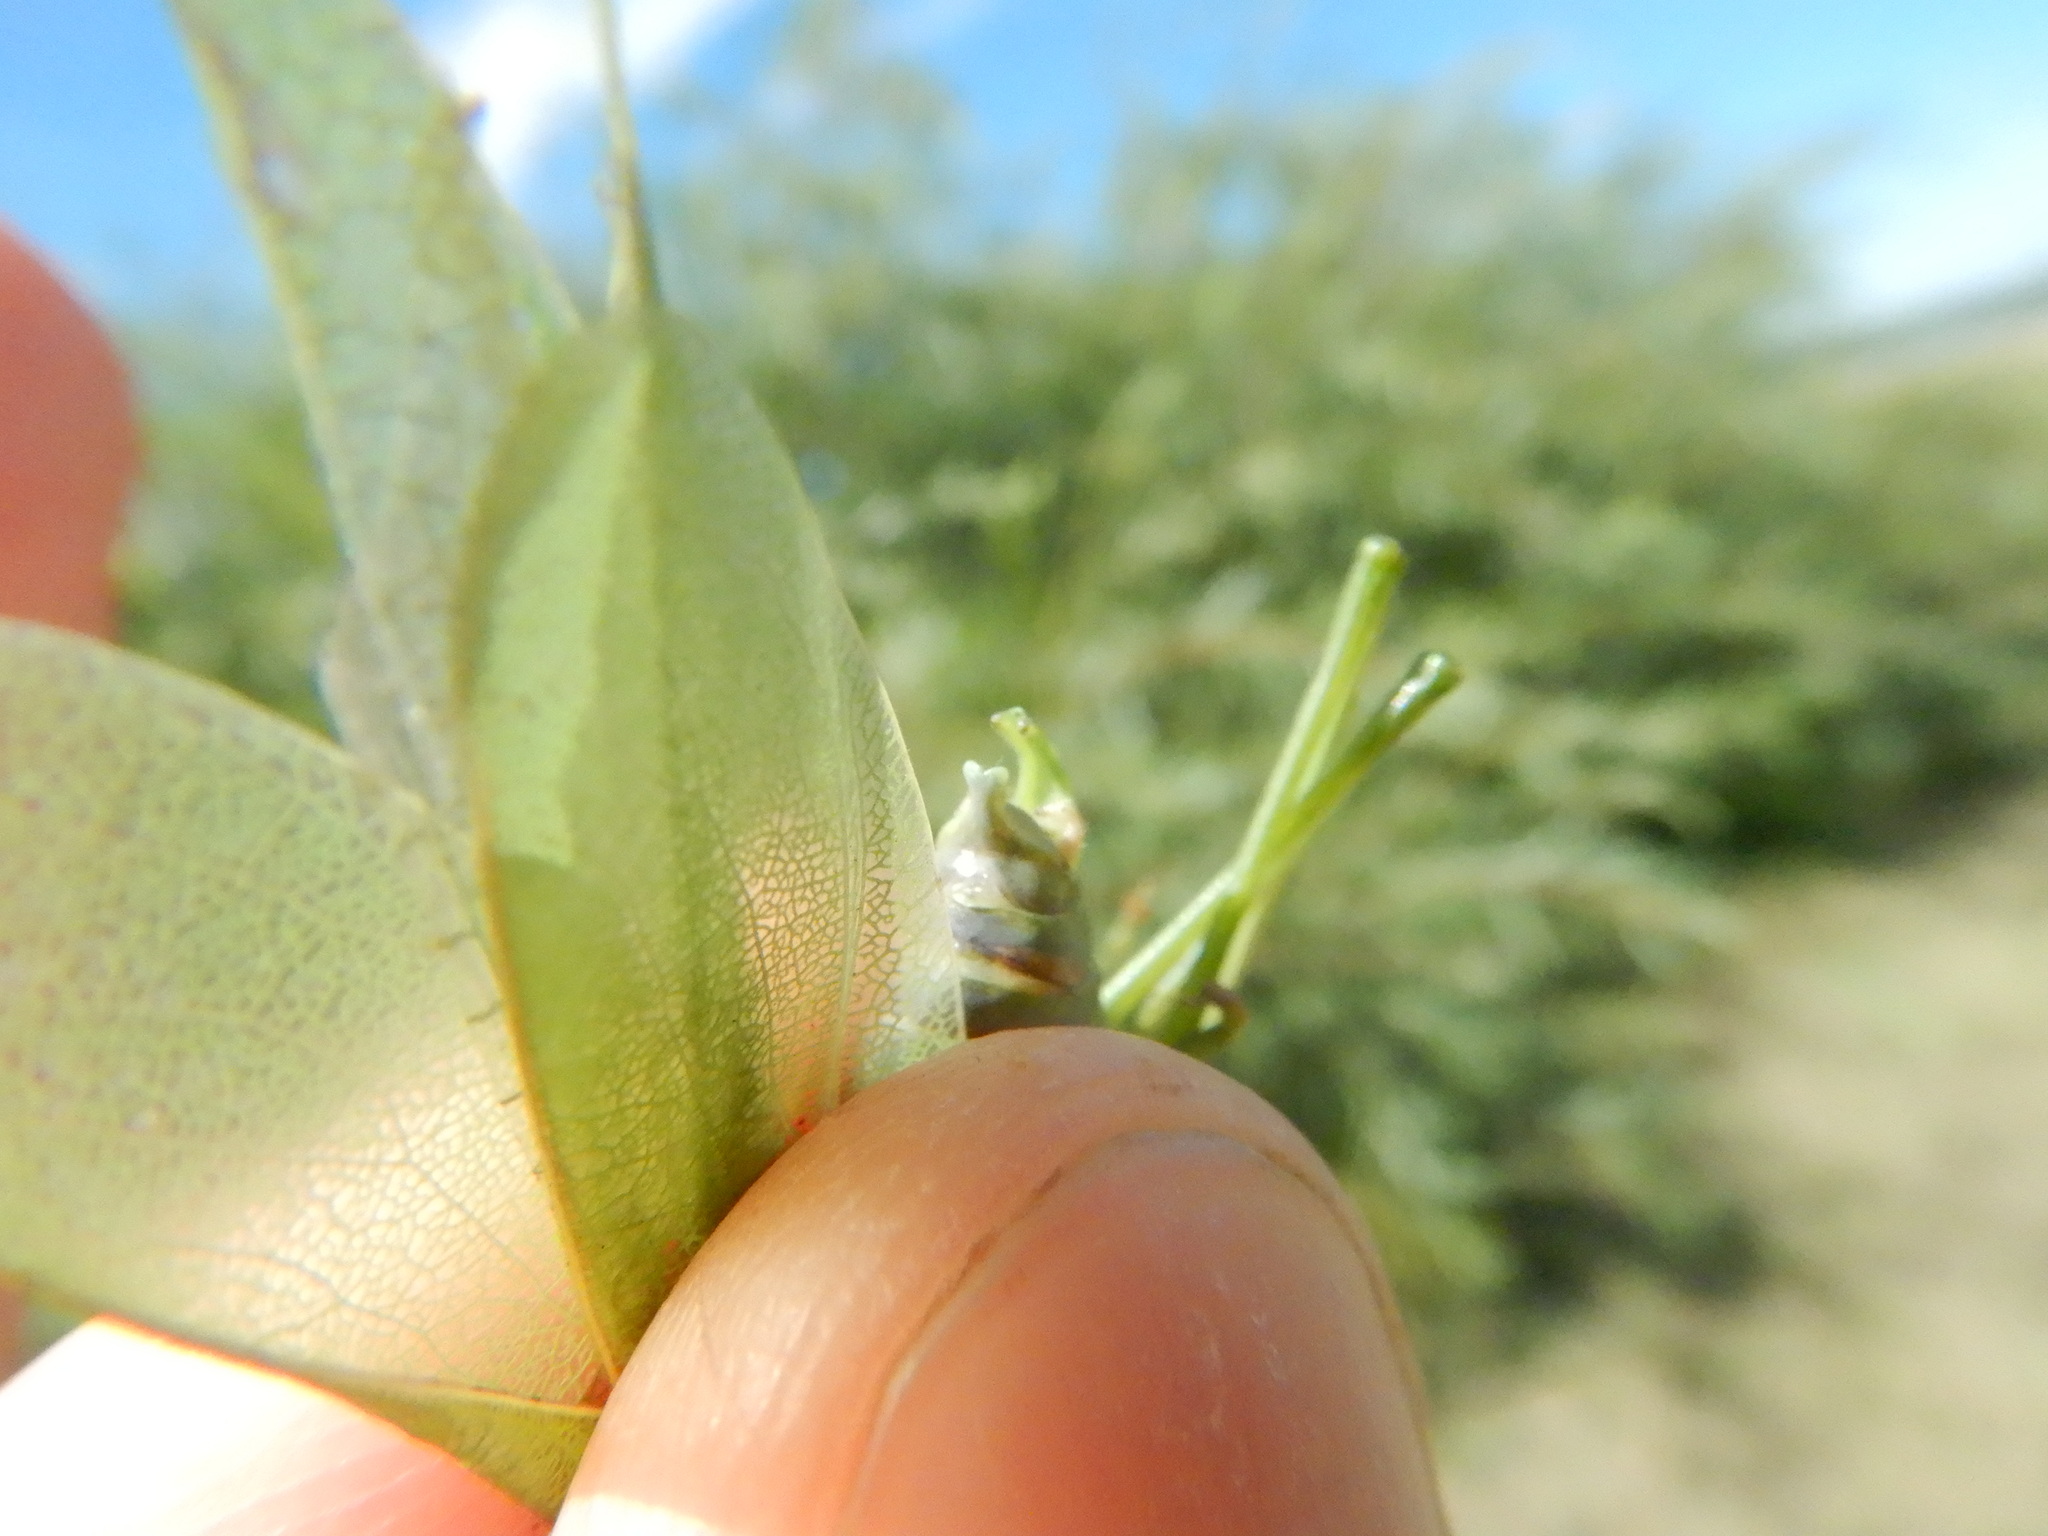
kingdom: Animalia
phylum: Arthropoda
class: Insecta
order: Orthoptera
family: Tettigoniidae
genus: Scudderia
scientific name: Scudderia pistillata
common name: Broad-winged bush-katydid
